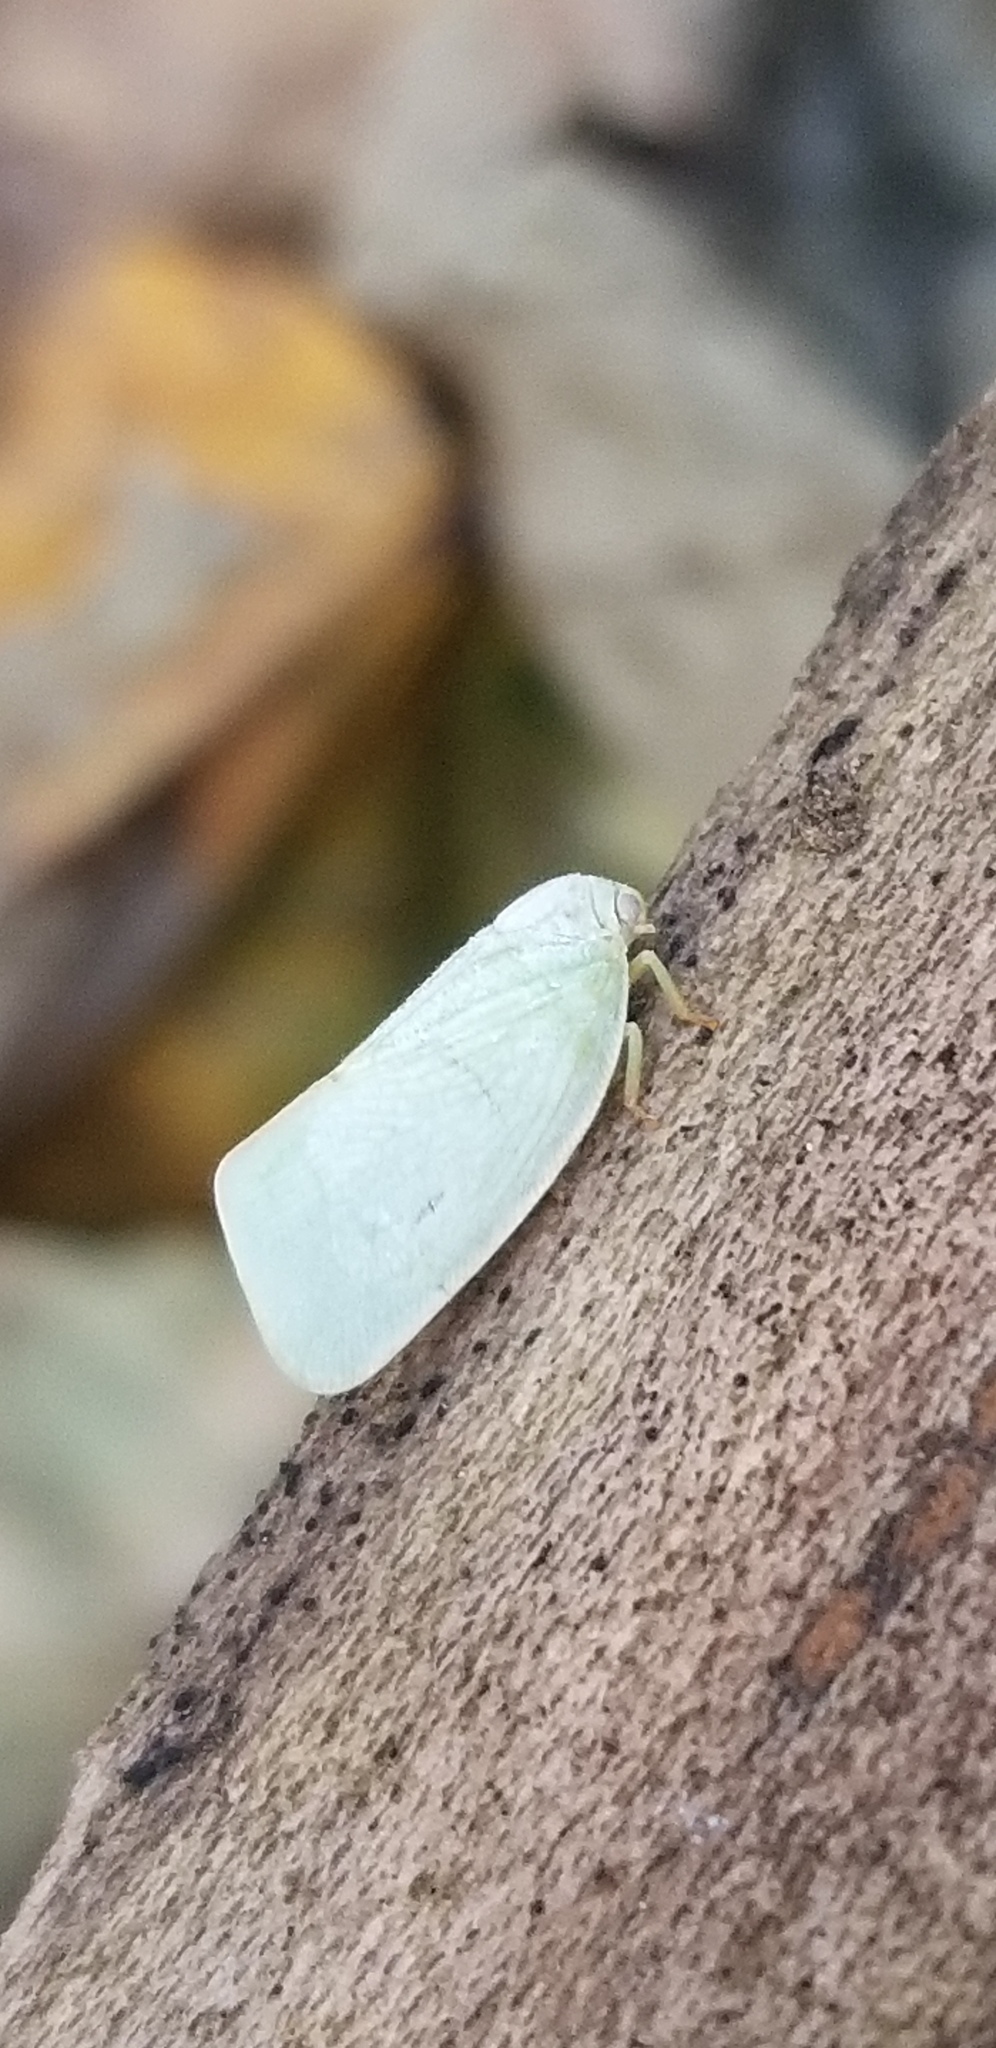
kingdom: Animalia
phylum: Arthropoda
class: Insecta
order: Hemiptera
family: Flatidae
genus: Flatormenis
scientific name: Flatormenis proxima
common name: Northern flatid planthopper
